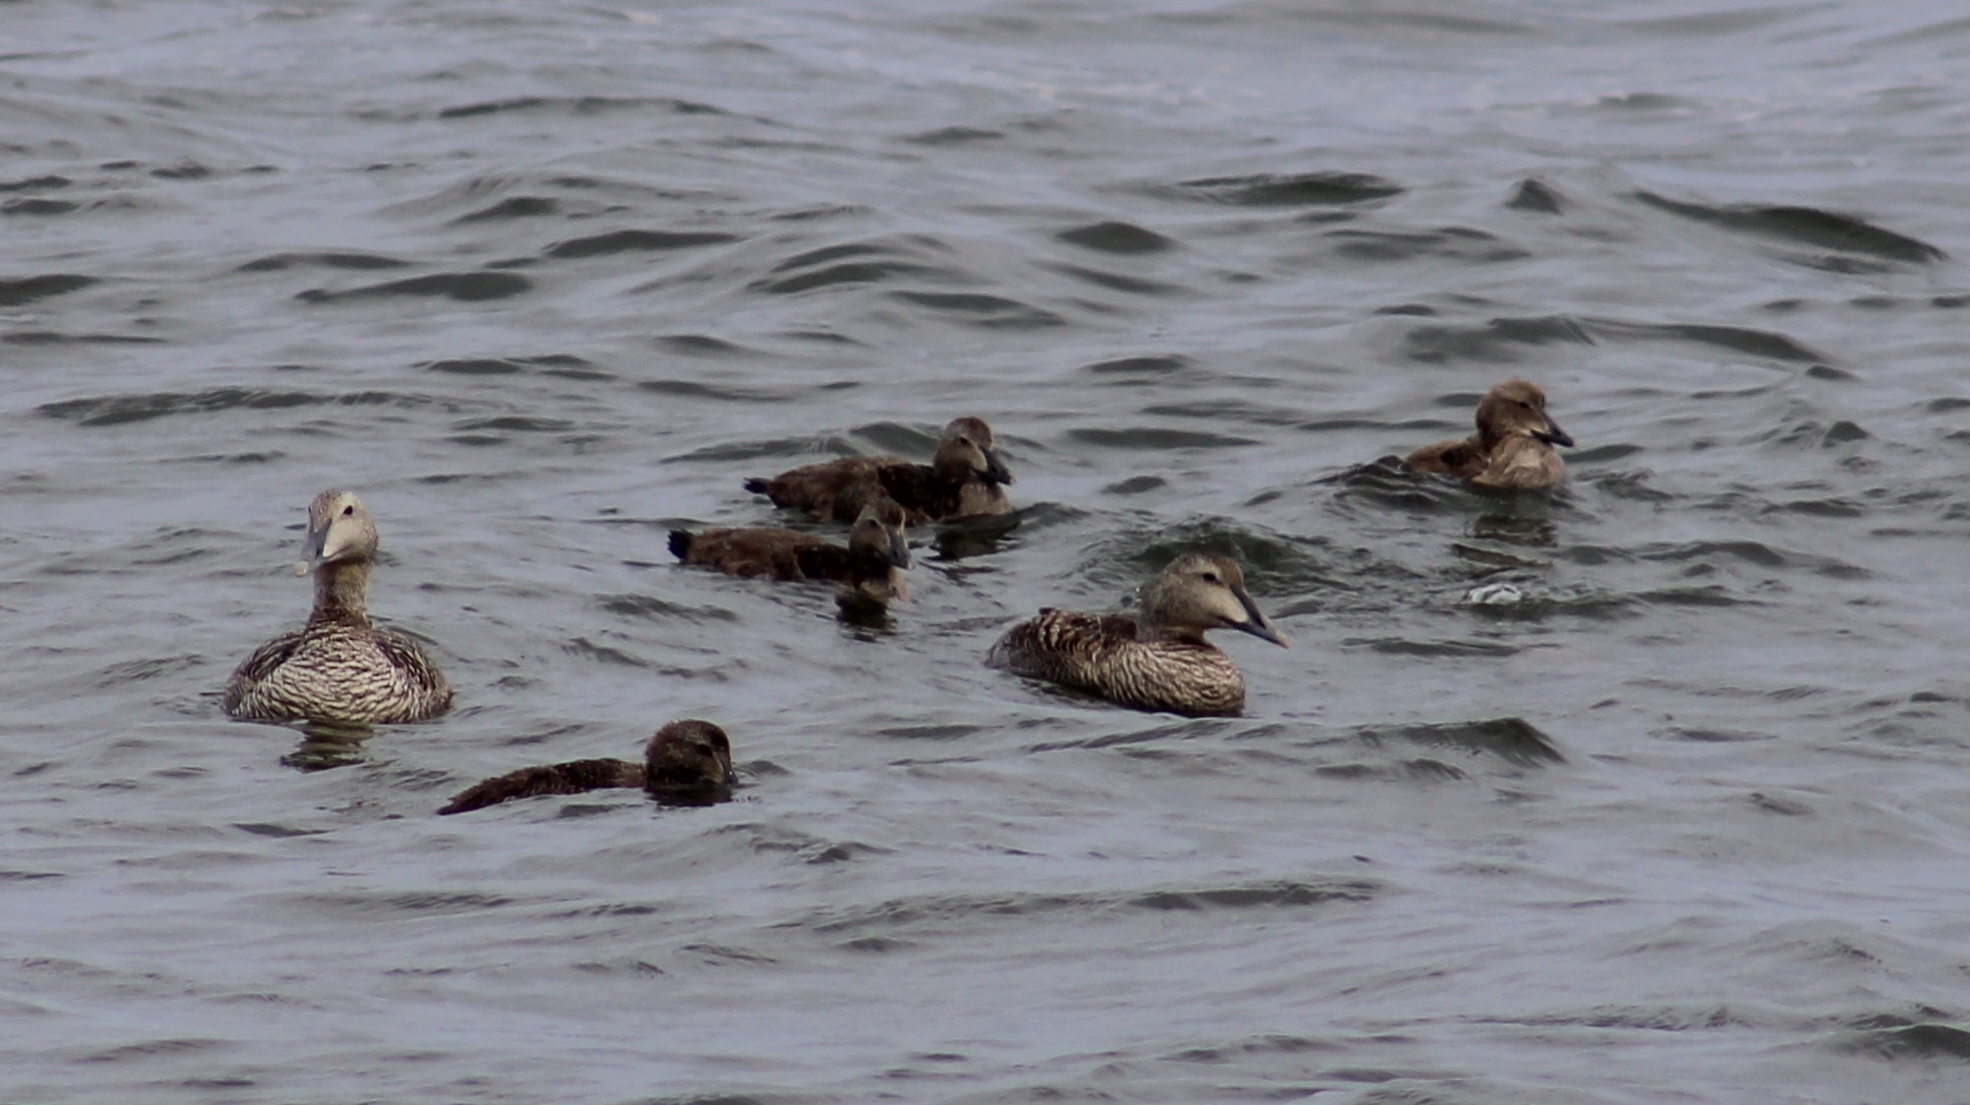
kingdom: Animalia
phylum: Chordata
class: Aves
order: Anseriformes
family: Anatidae
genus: Somateria
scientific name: Somateria mollissima
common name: Common eider
